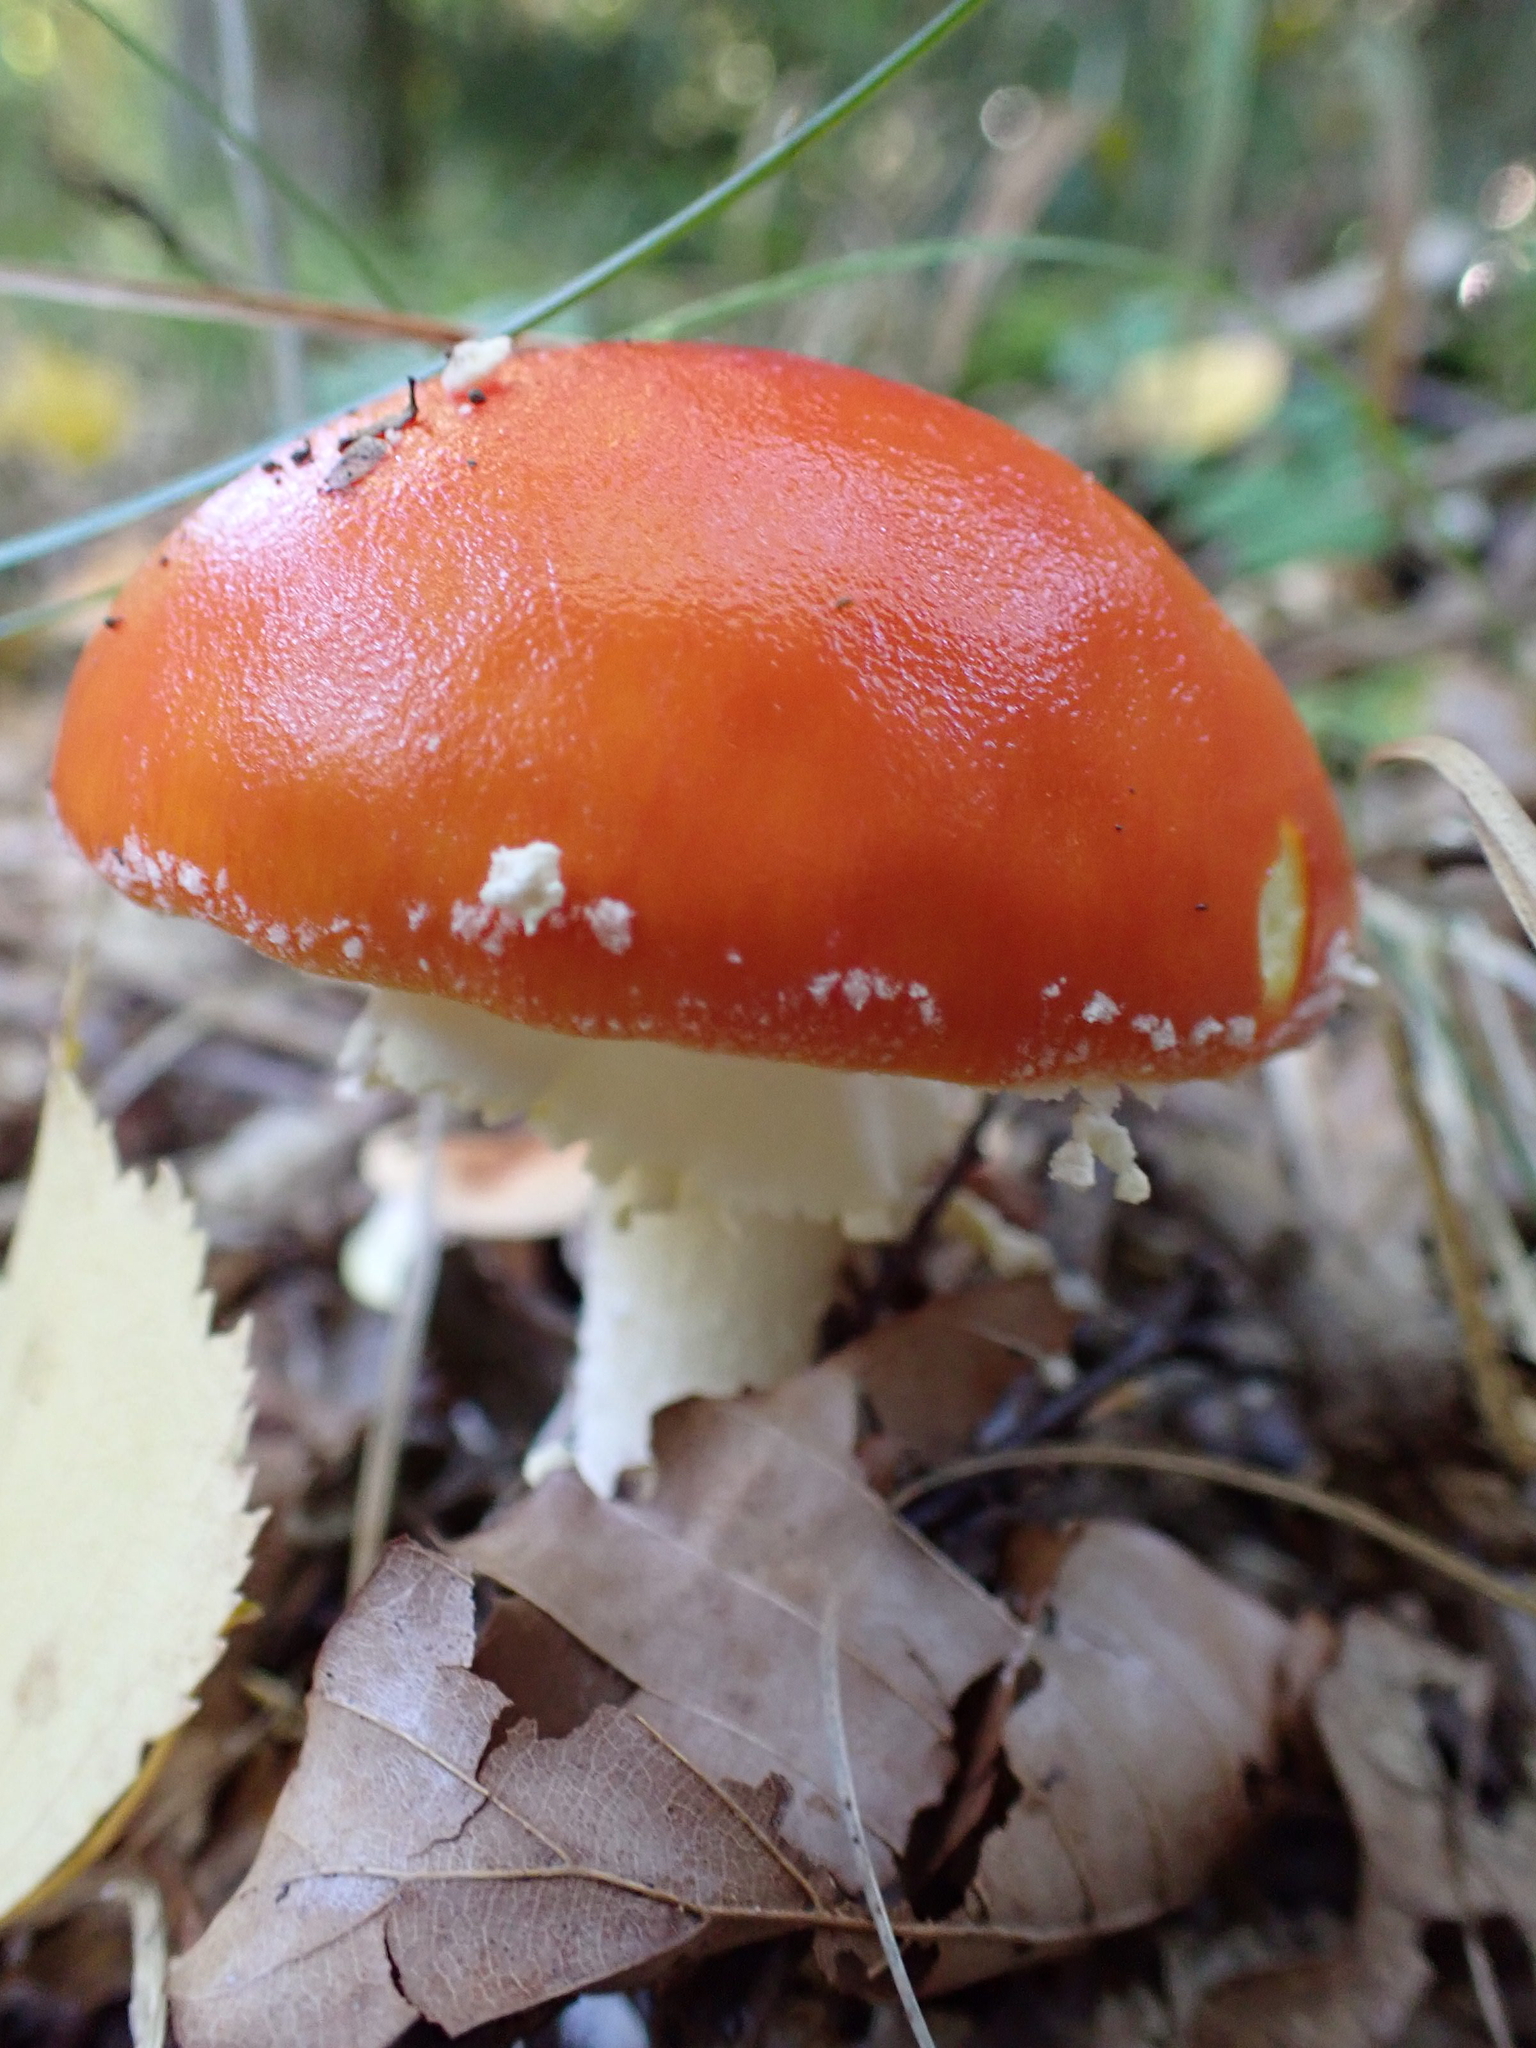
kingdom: Fungi
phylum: Basidiomycota
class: Agaricomycetes
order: Agaricales
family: Amanitaceae
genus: Amanita
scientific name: Amanita muscaria
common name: Fly agaric
